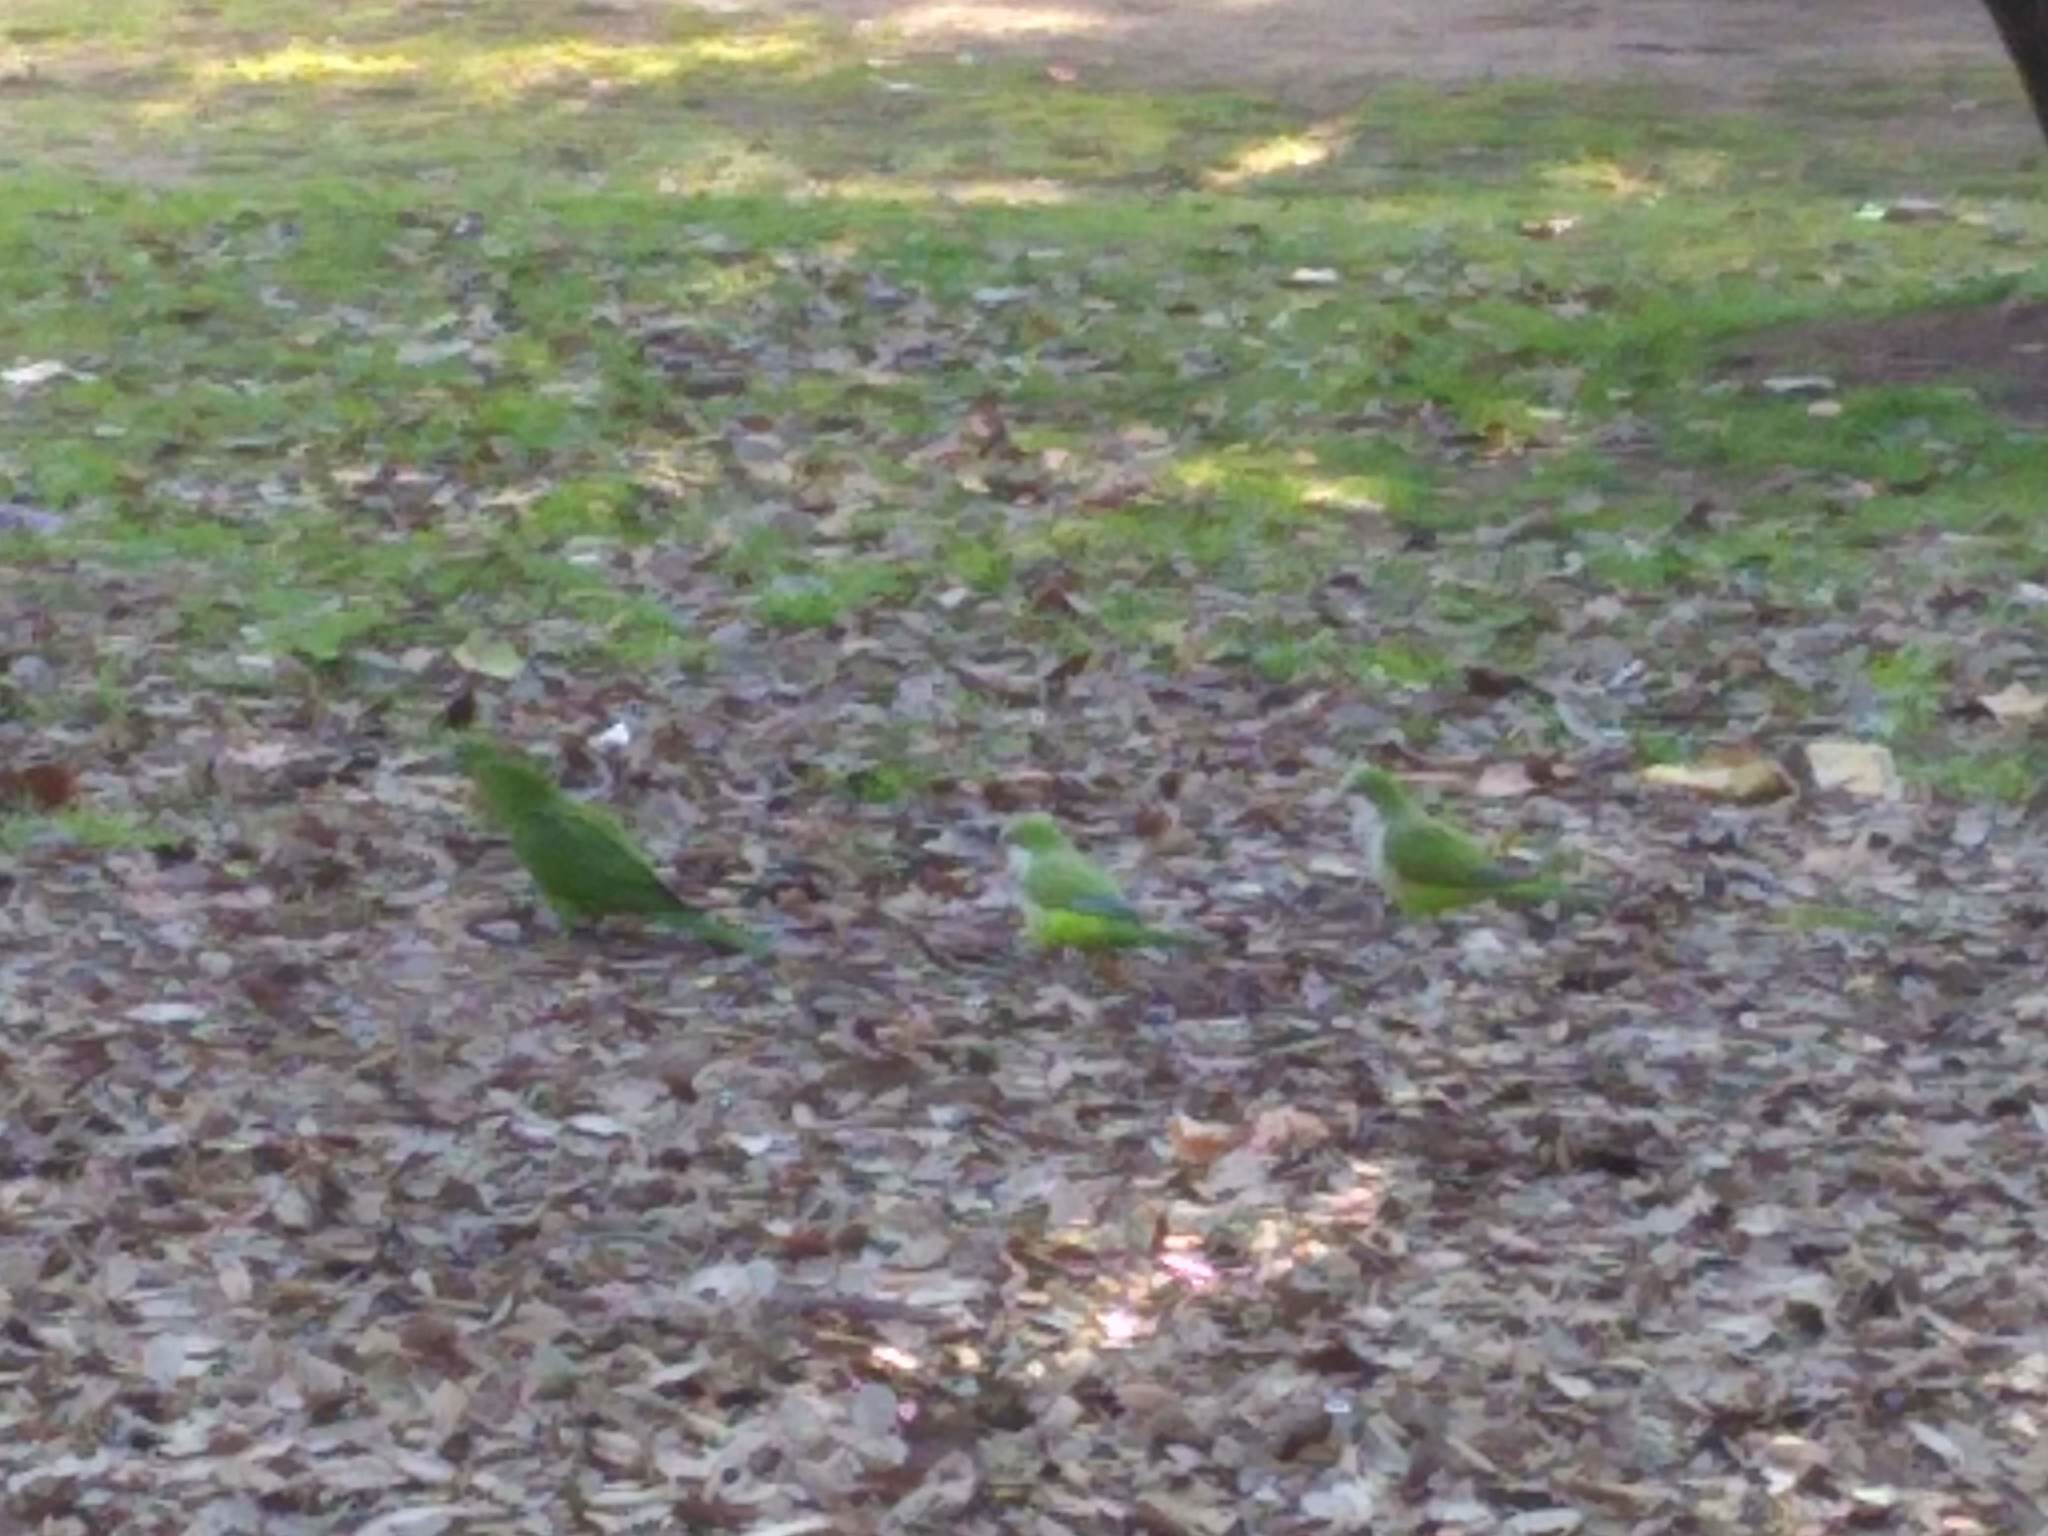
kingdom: Animalia
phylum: Chordata
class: Aves
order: Psittaciformes
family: Psittacidae
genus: Myiopsitta
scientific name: Myiopsitta monachus
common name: Monk parakeet
